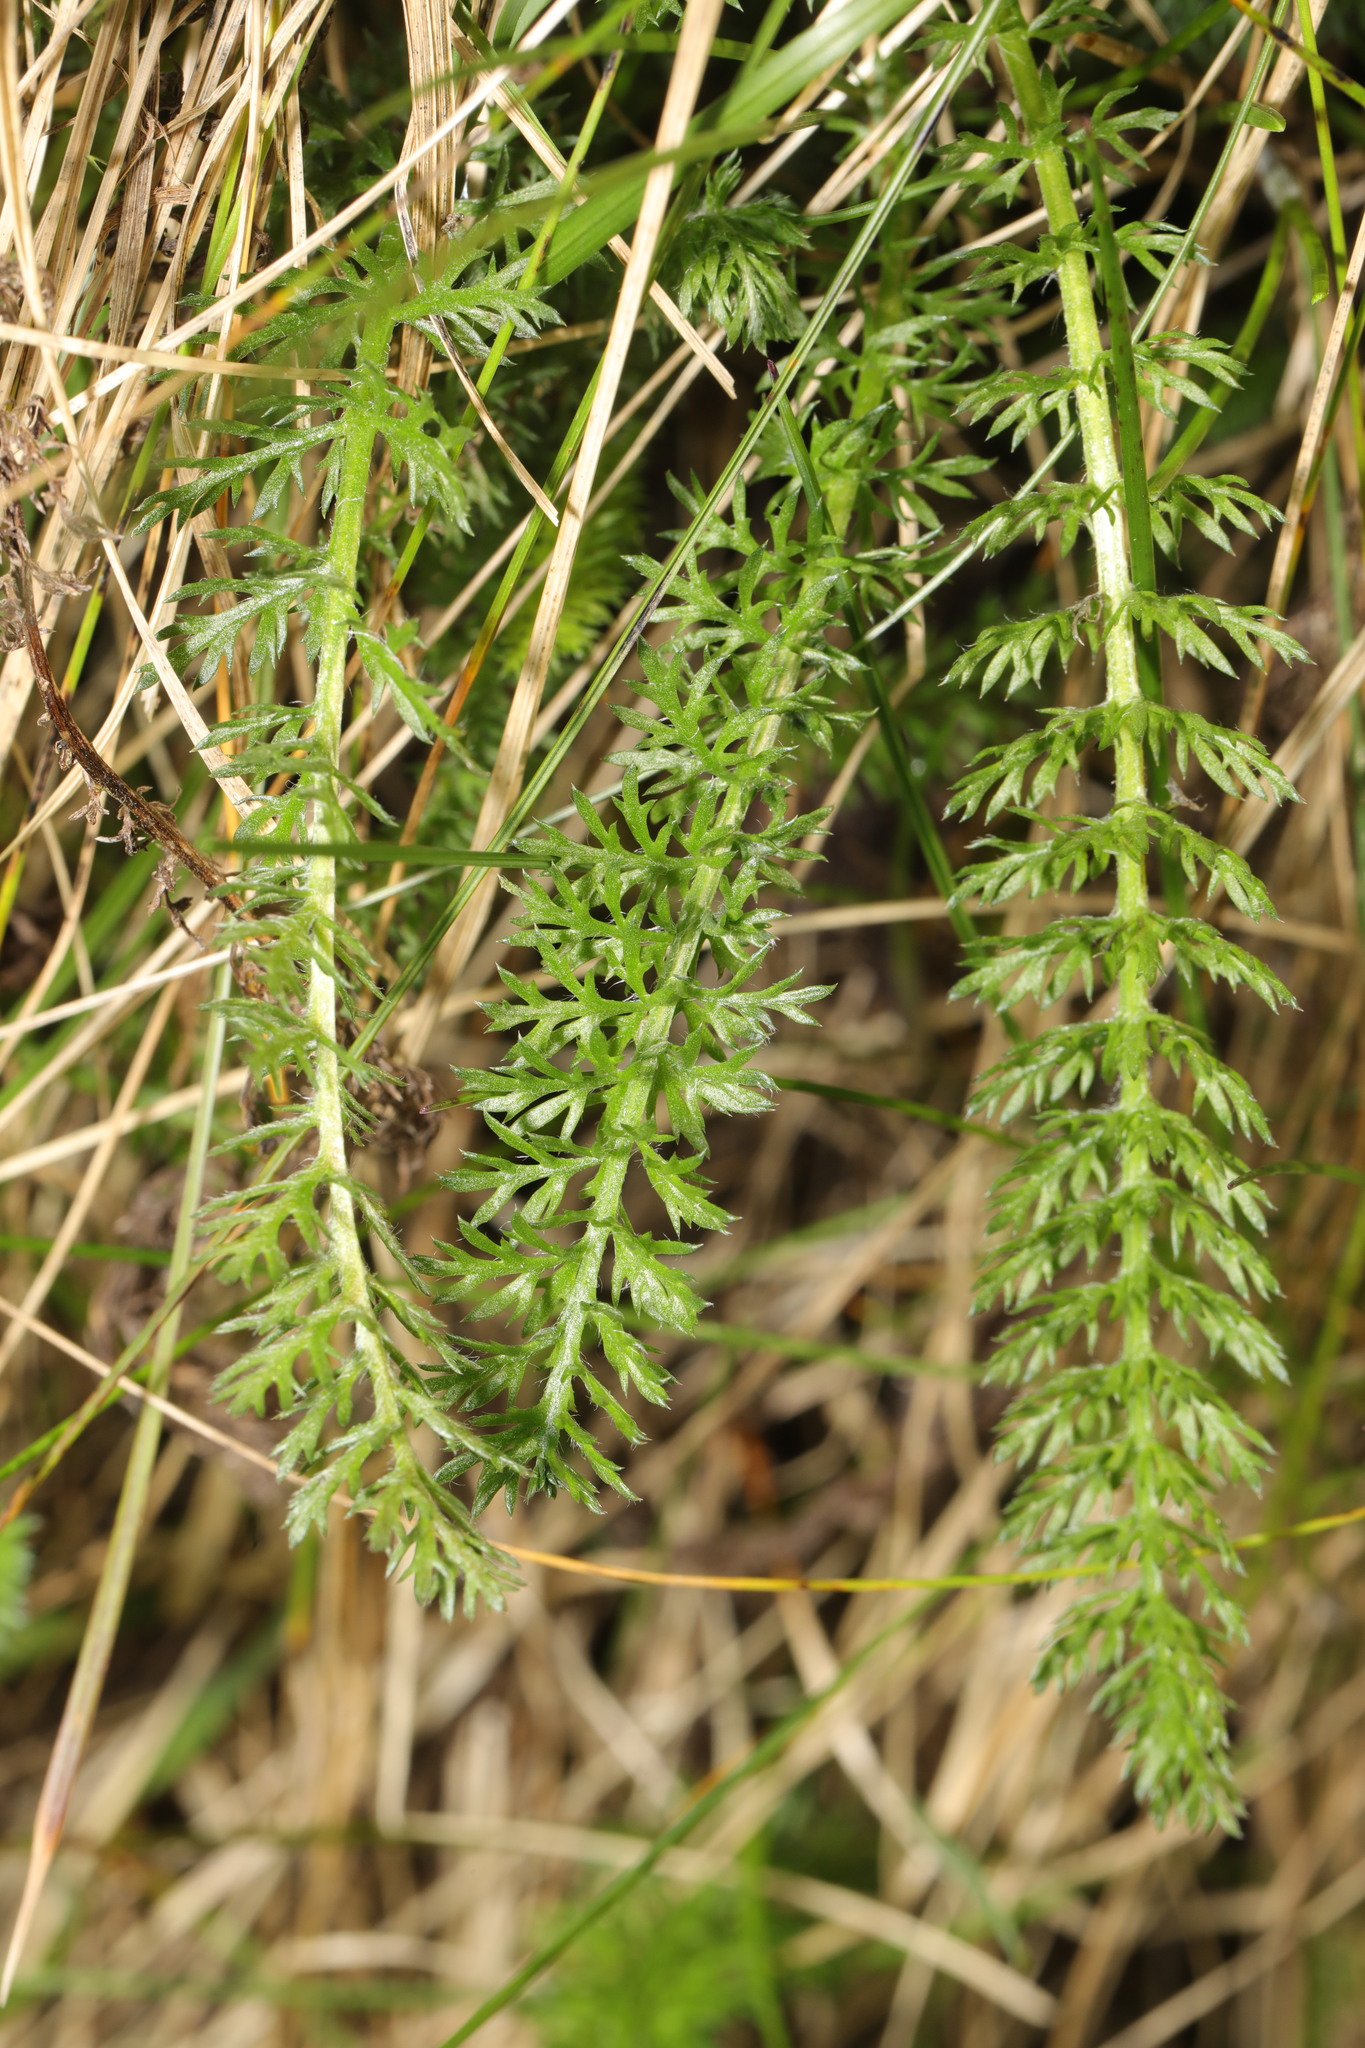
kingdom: Plantae
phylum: Tracheophyta
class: Magnoliopsida
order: Asterales
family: Asteraceae
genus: Achillea
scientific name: Achillea millefolium
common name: Yarrow
